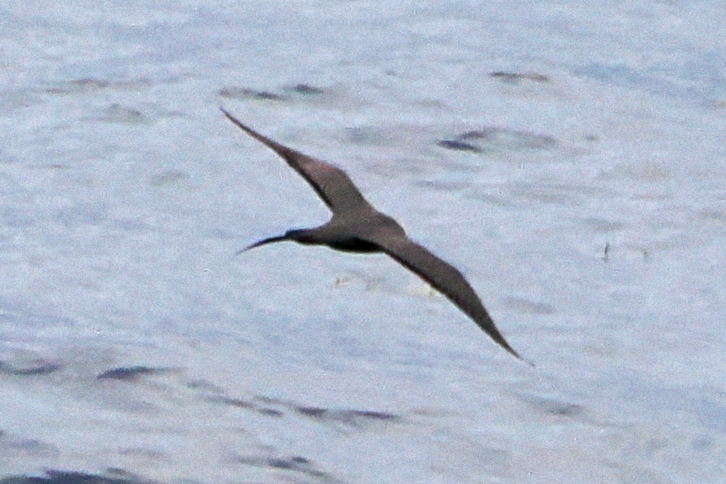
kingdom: Animalia
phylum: Chordata
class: Aves
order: Charadriiformes
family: Stercorariidae
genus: Stercorarius
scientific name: Stercorarius longicaudus
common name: Long-tailed jaeger
